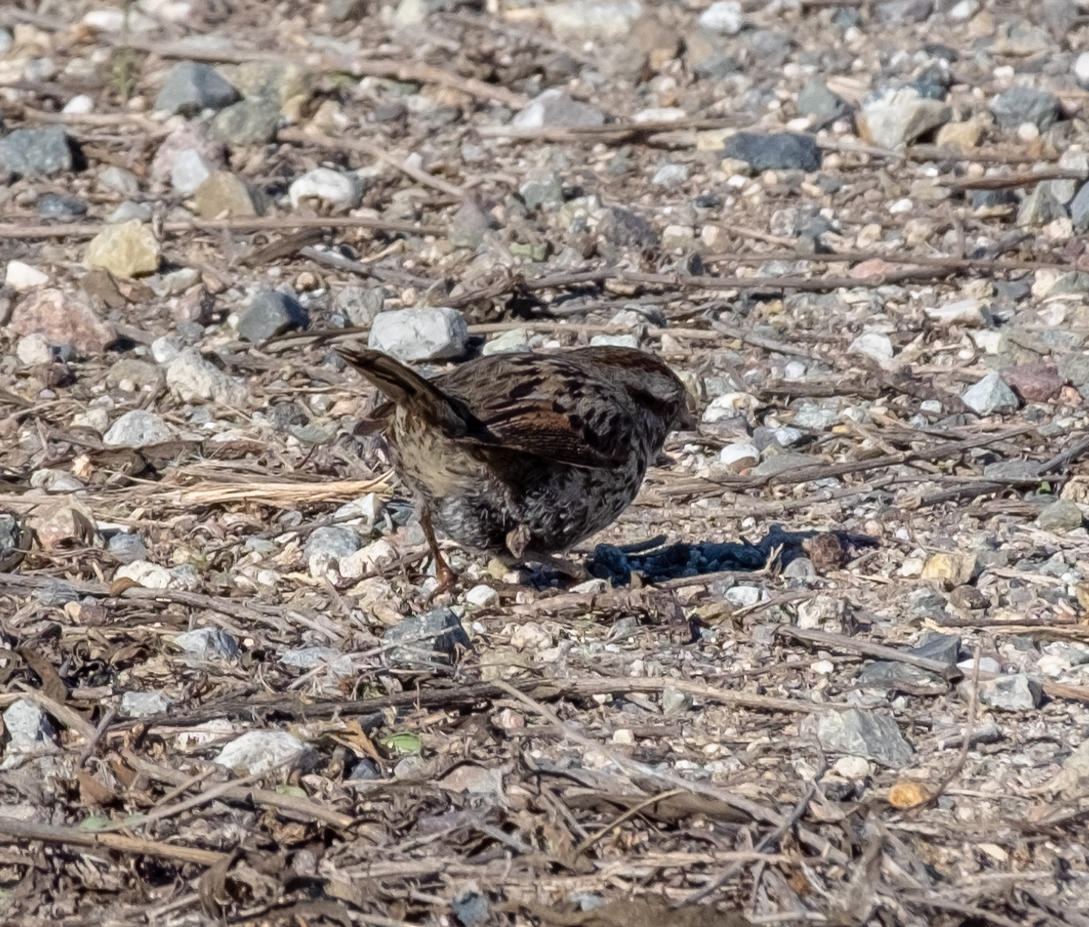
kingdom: Animalia
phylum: Chordata
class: Aves
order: Passeriformes
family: Passerellidae
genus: Melospiza
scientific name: Melospiza melodia
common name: Song sparrow
